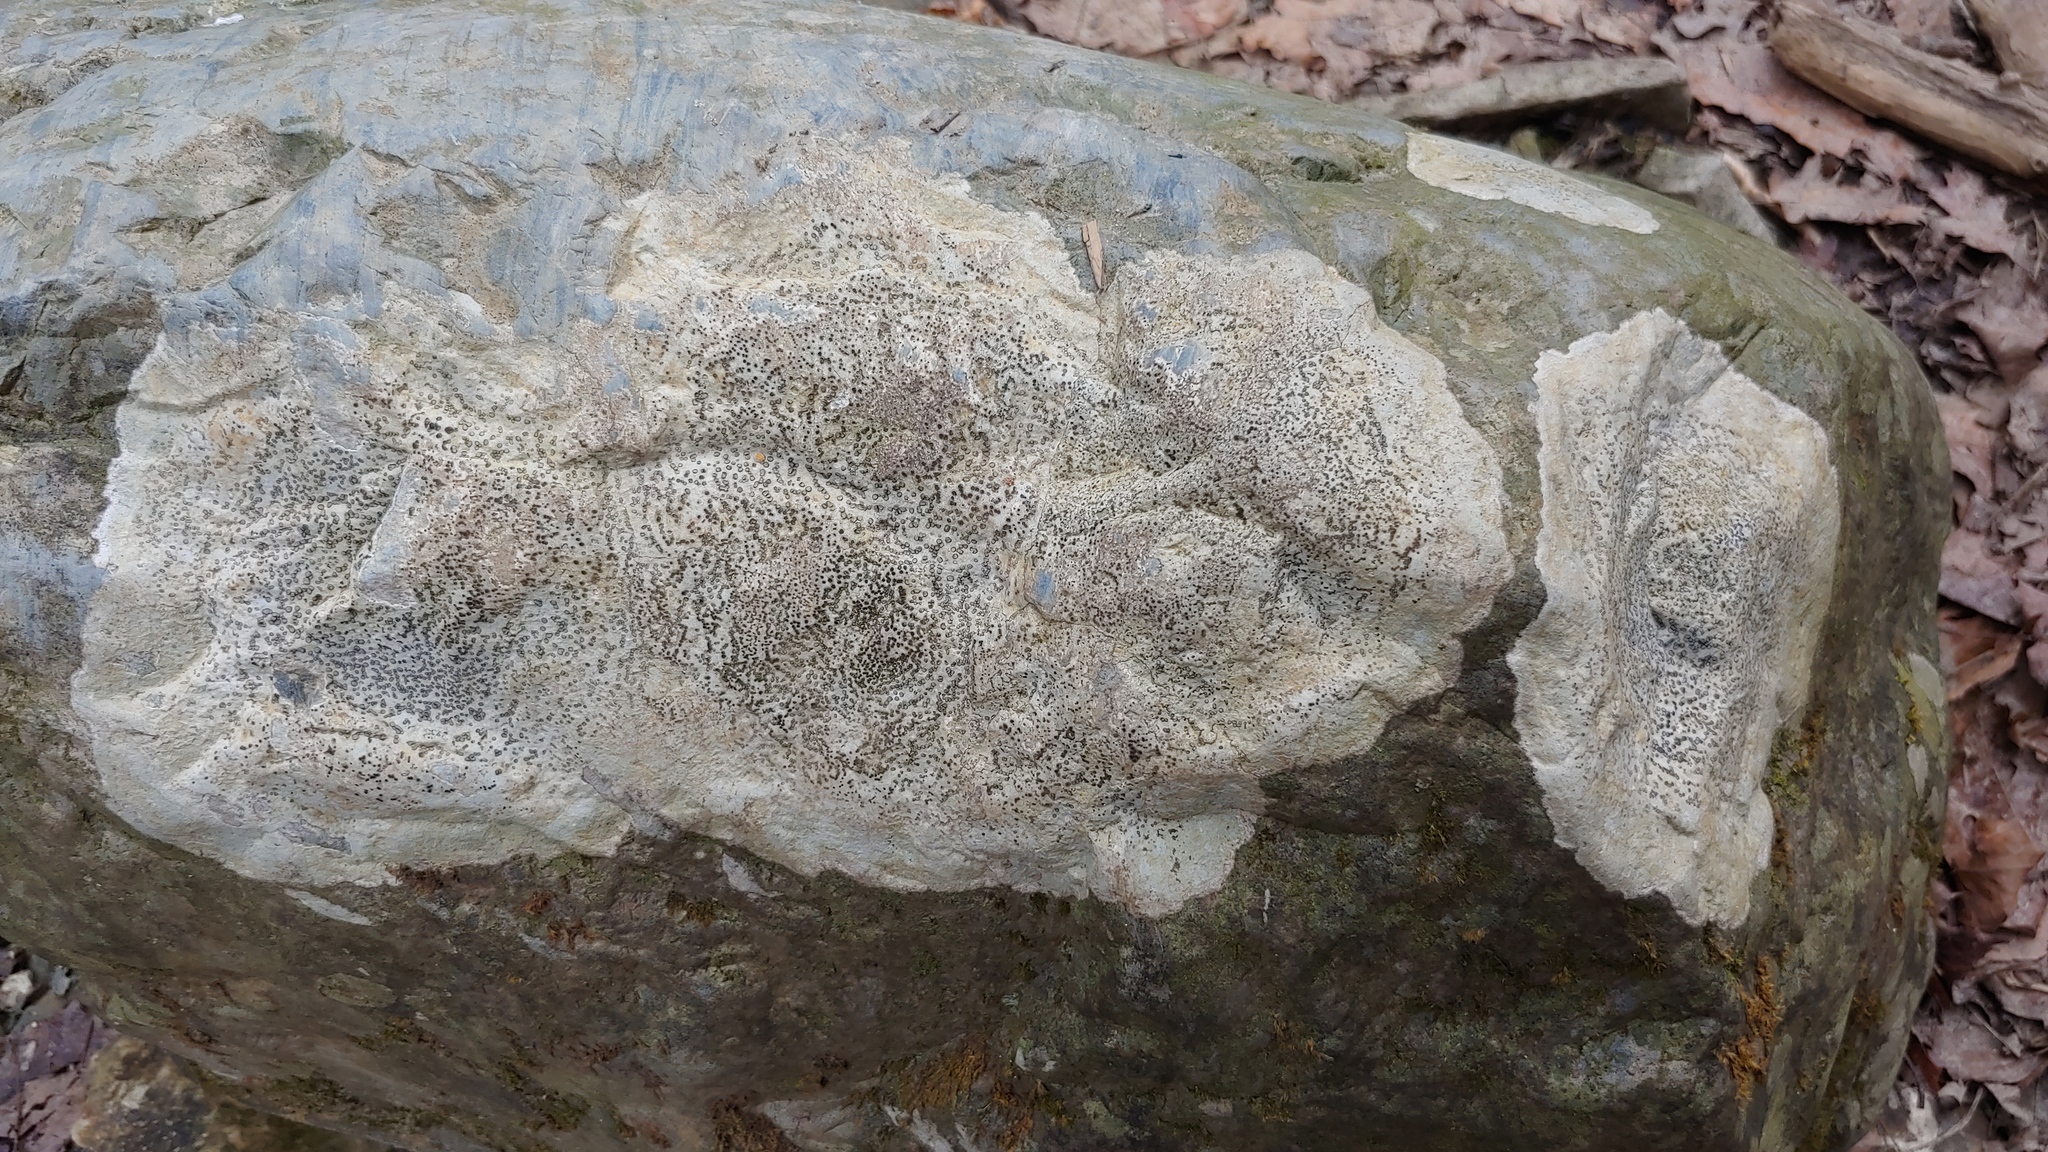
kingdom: Fungi
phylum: Ascomycota
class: Lecanoromycetes
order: Lecideales
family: Lecideaceae
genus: Porpidia
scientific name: Porpidia albocaerulescens
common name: Smokey-eyed boulder lichen
